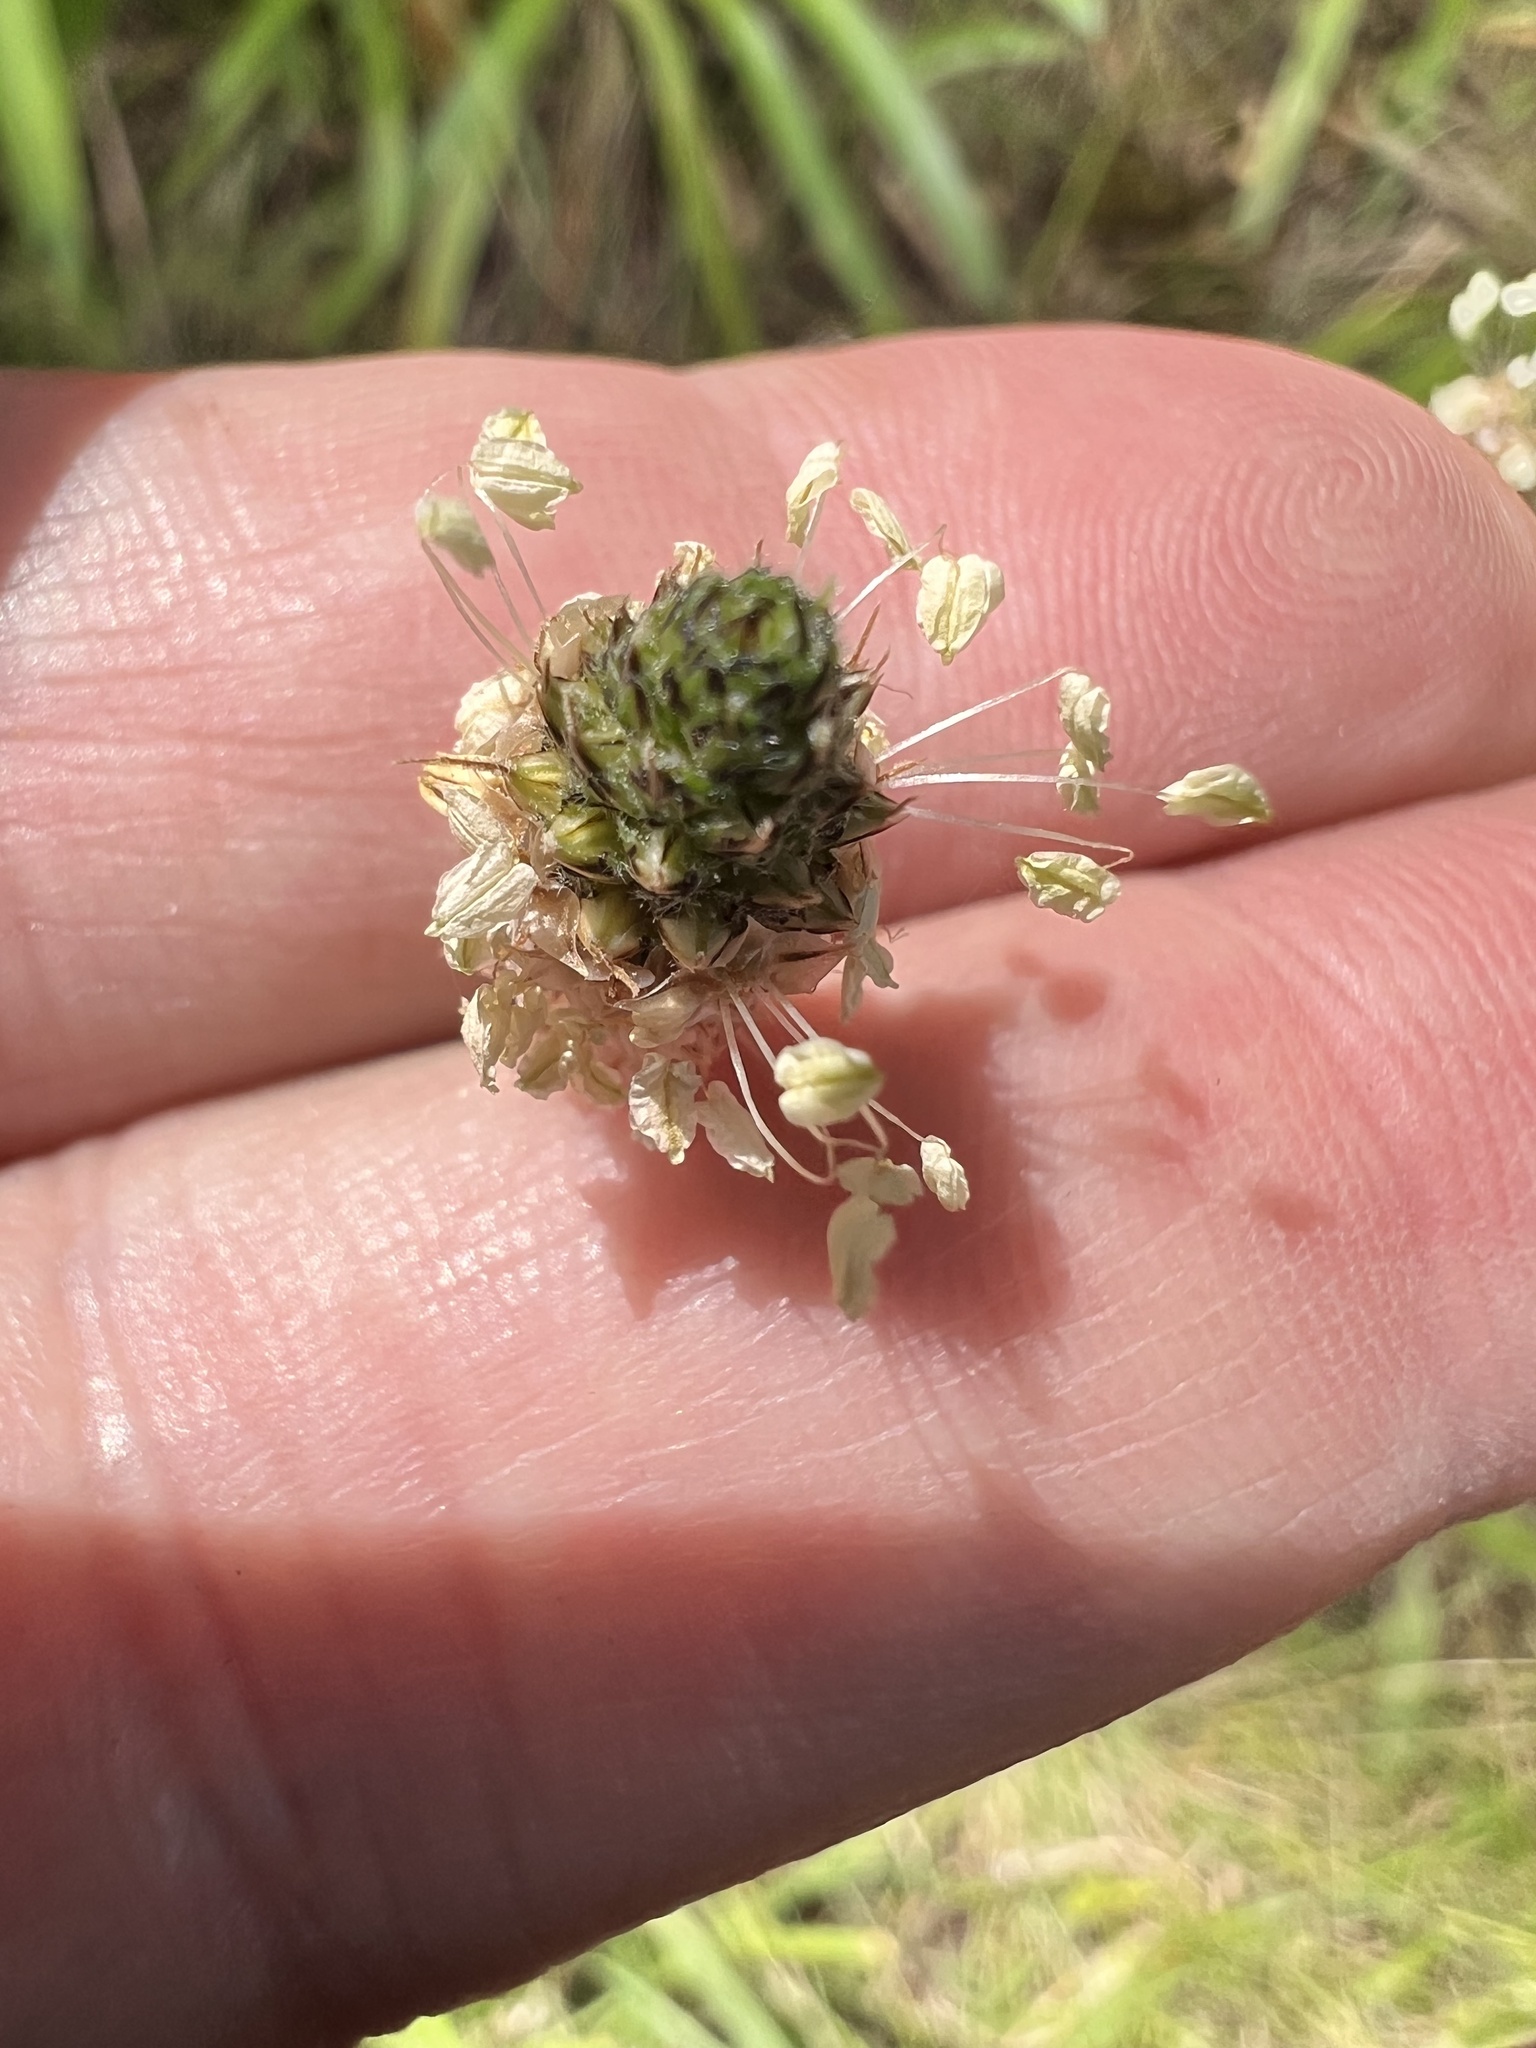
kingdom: Plantae
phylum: Tracheophyta
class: Magnoliopsida
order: Lamiales
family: Plantaginaceae
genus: Plantago
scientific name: Plantago lanceolata
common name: Ribwort plantain
